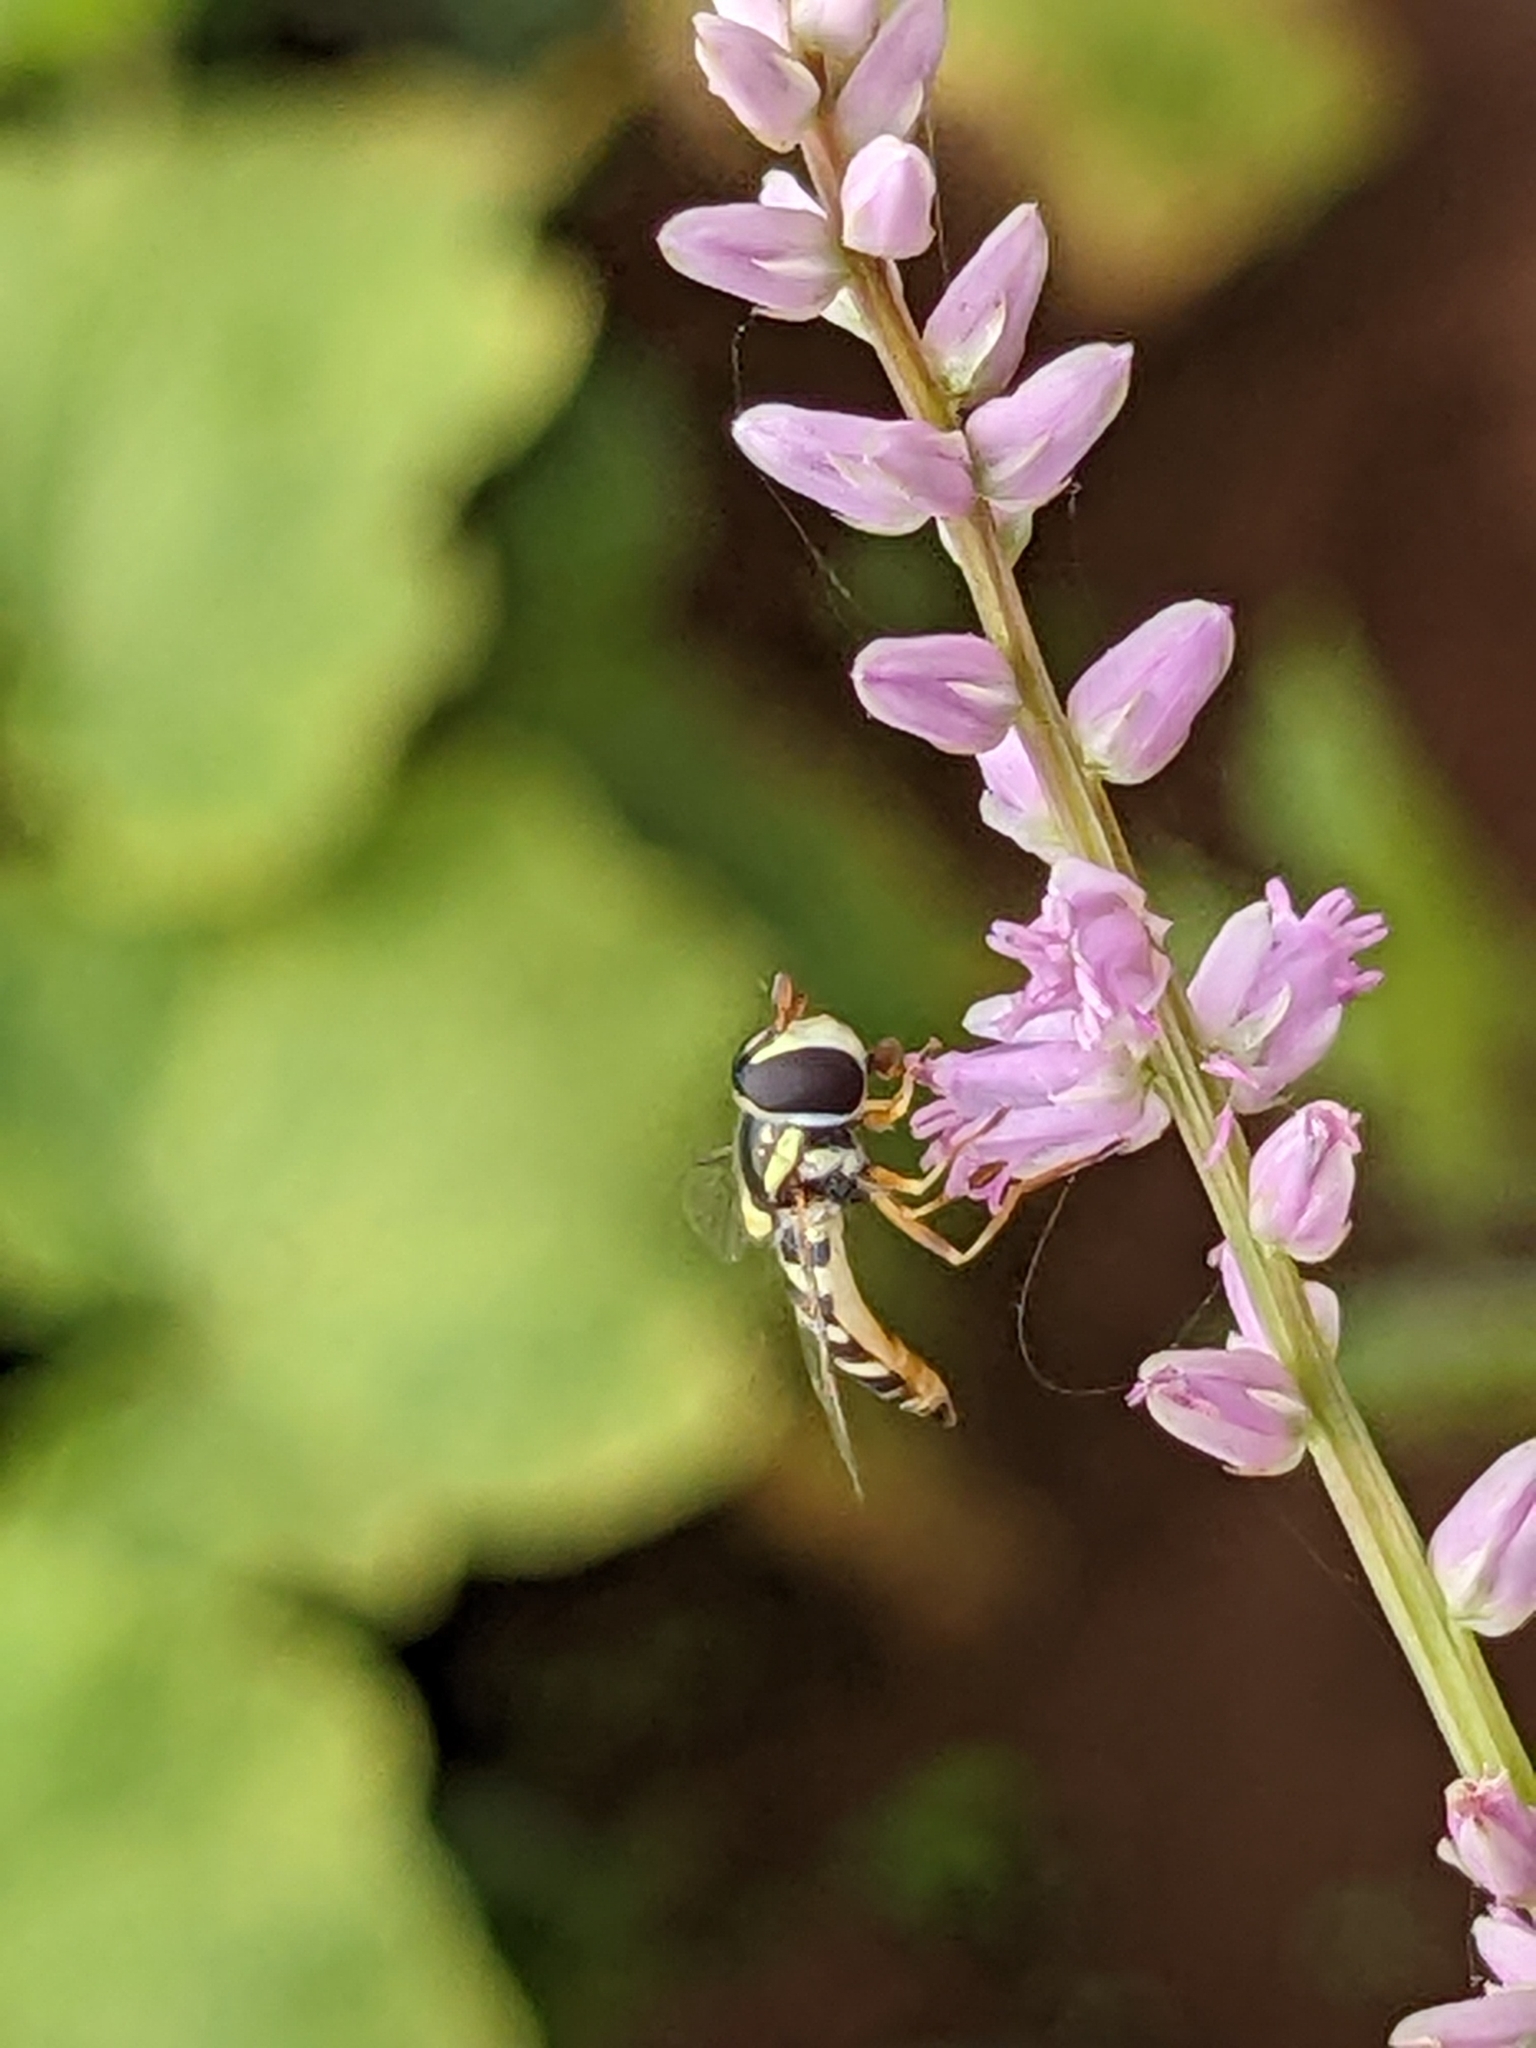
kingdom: Animalia
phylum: Arthropoda
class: Insecta
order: Diptera
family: Syrphidae
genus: Ischiodon
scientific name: Ischiodon aegyptius
